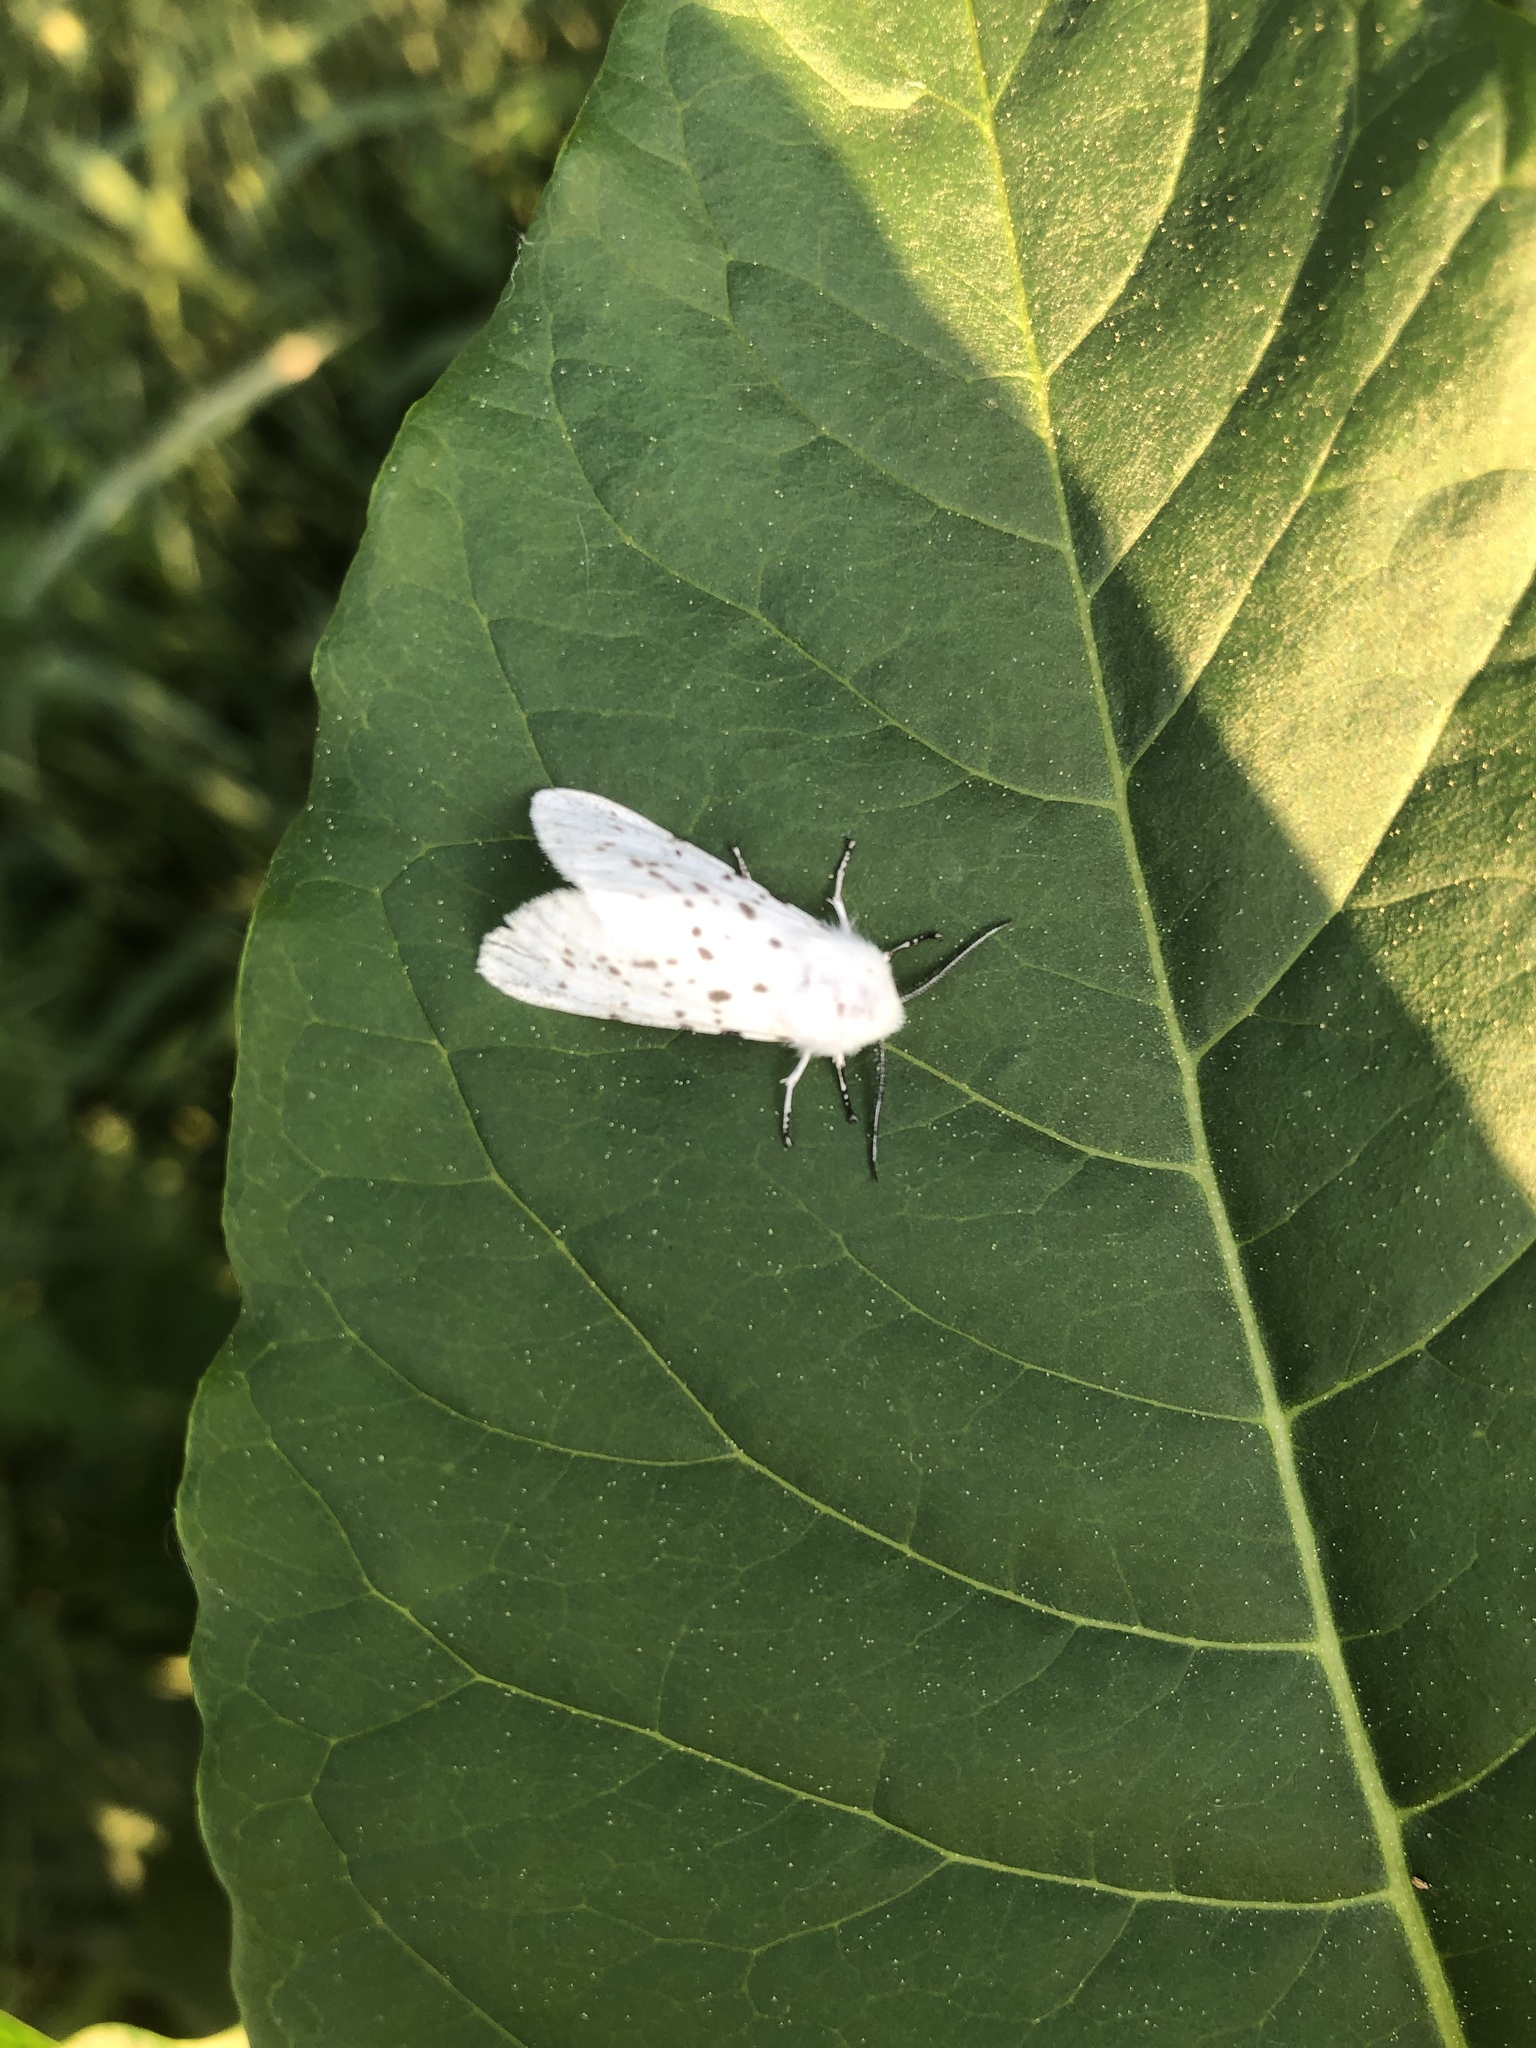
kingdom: Animalia
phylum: Arthropoda
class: Insecta
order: Lepidoptera
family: Erebidae
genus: Spilosoma
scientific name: Spilosoma lubricipeda
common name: White ermine
